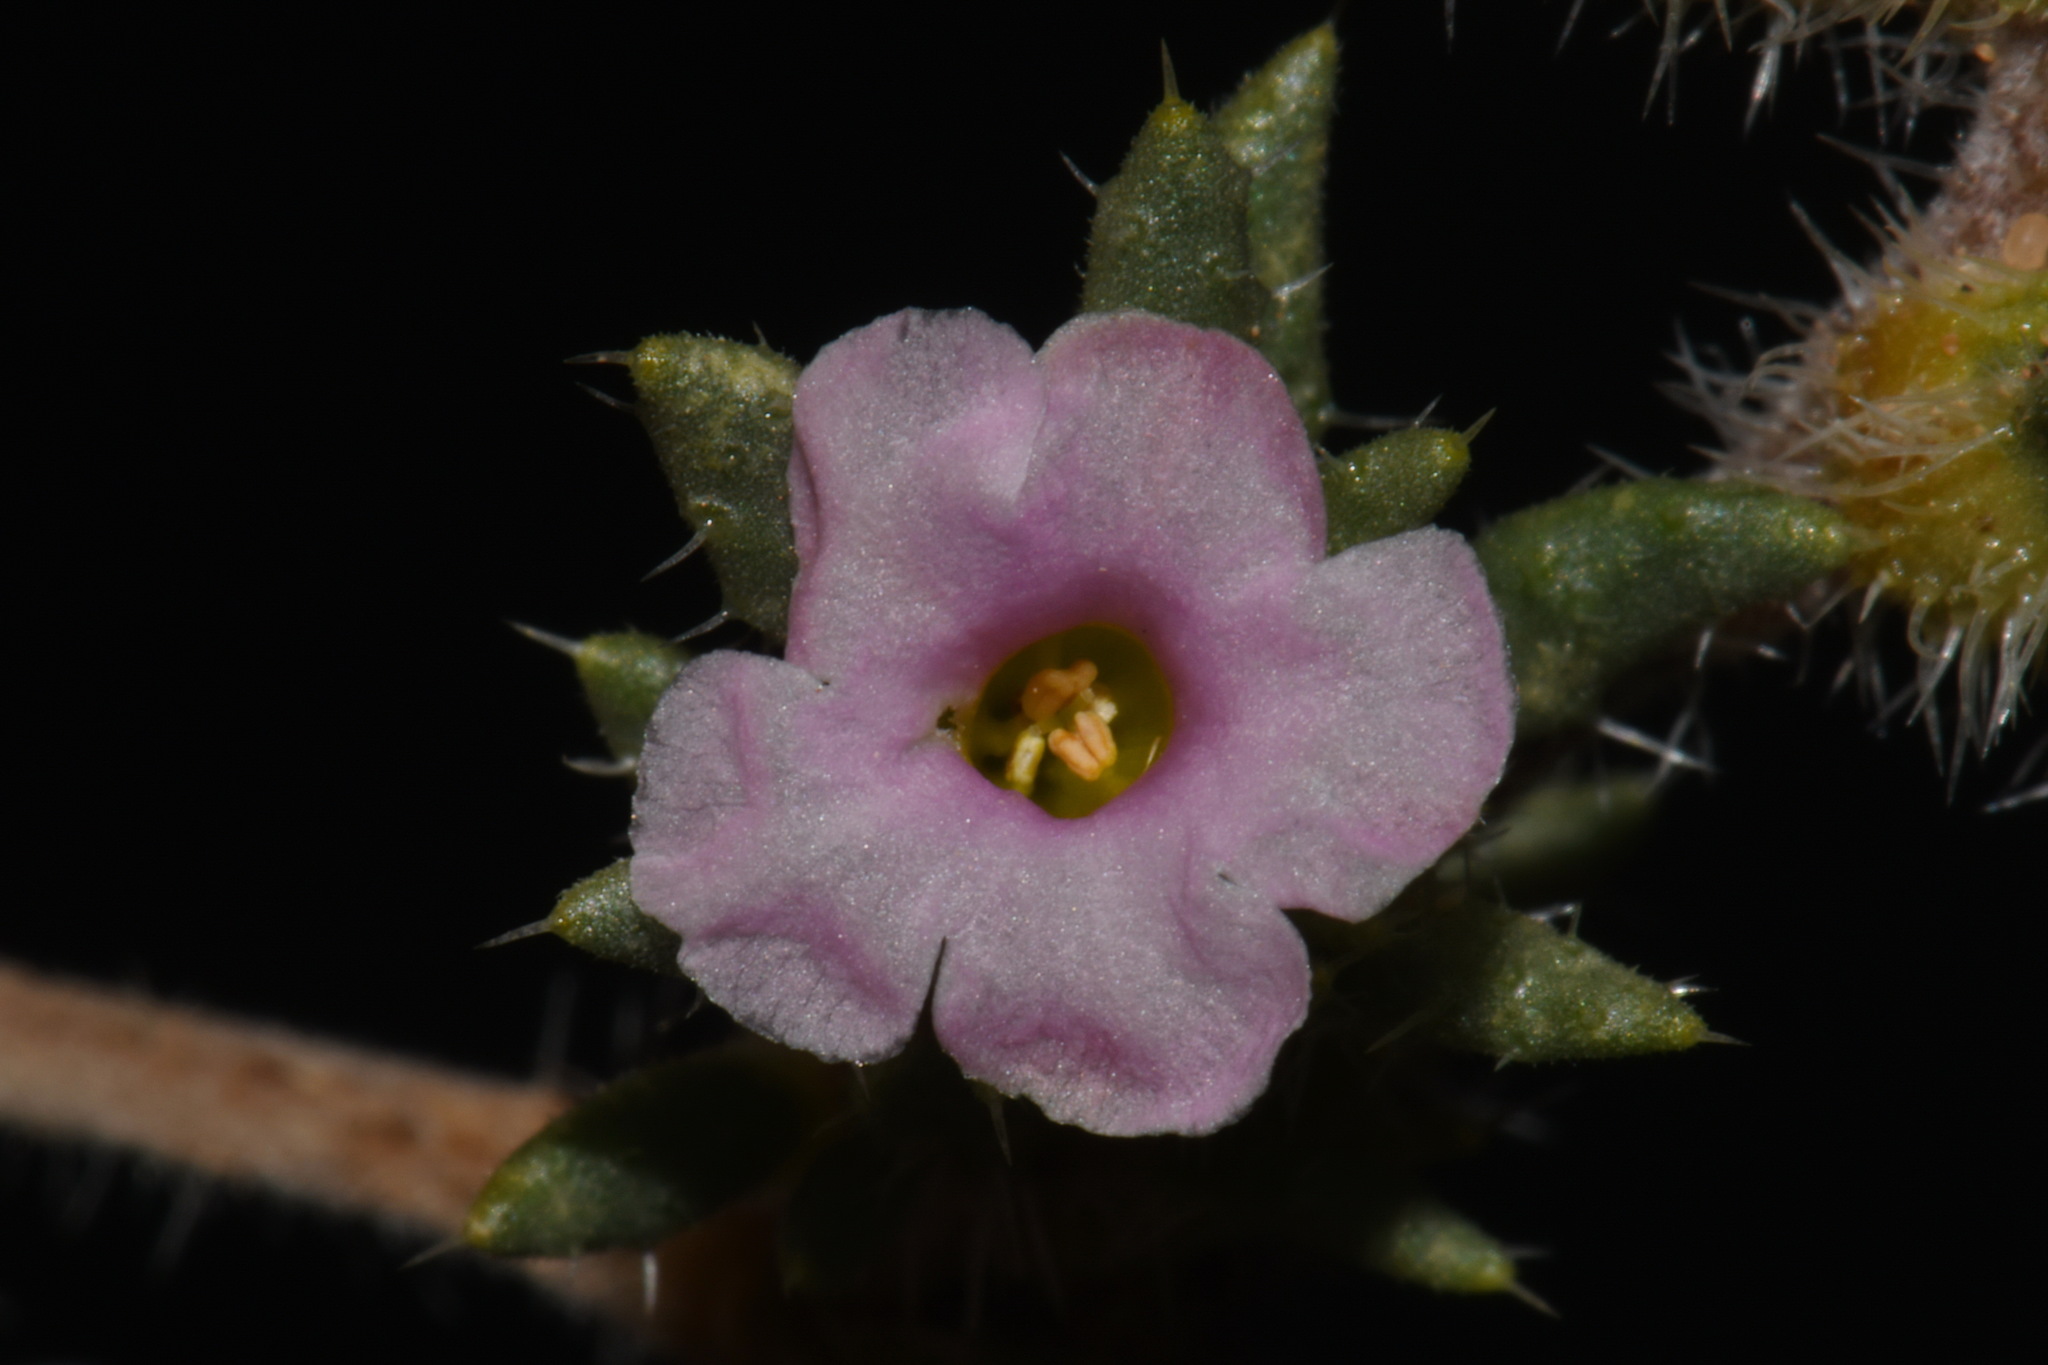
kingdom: Plantae
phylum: Tracheophyta
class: Magnoliopsida
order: Boraginales
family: Ehretiaceae
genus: Tiquilia
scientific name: Tiquilia latior
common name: Matted tiquilia
